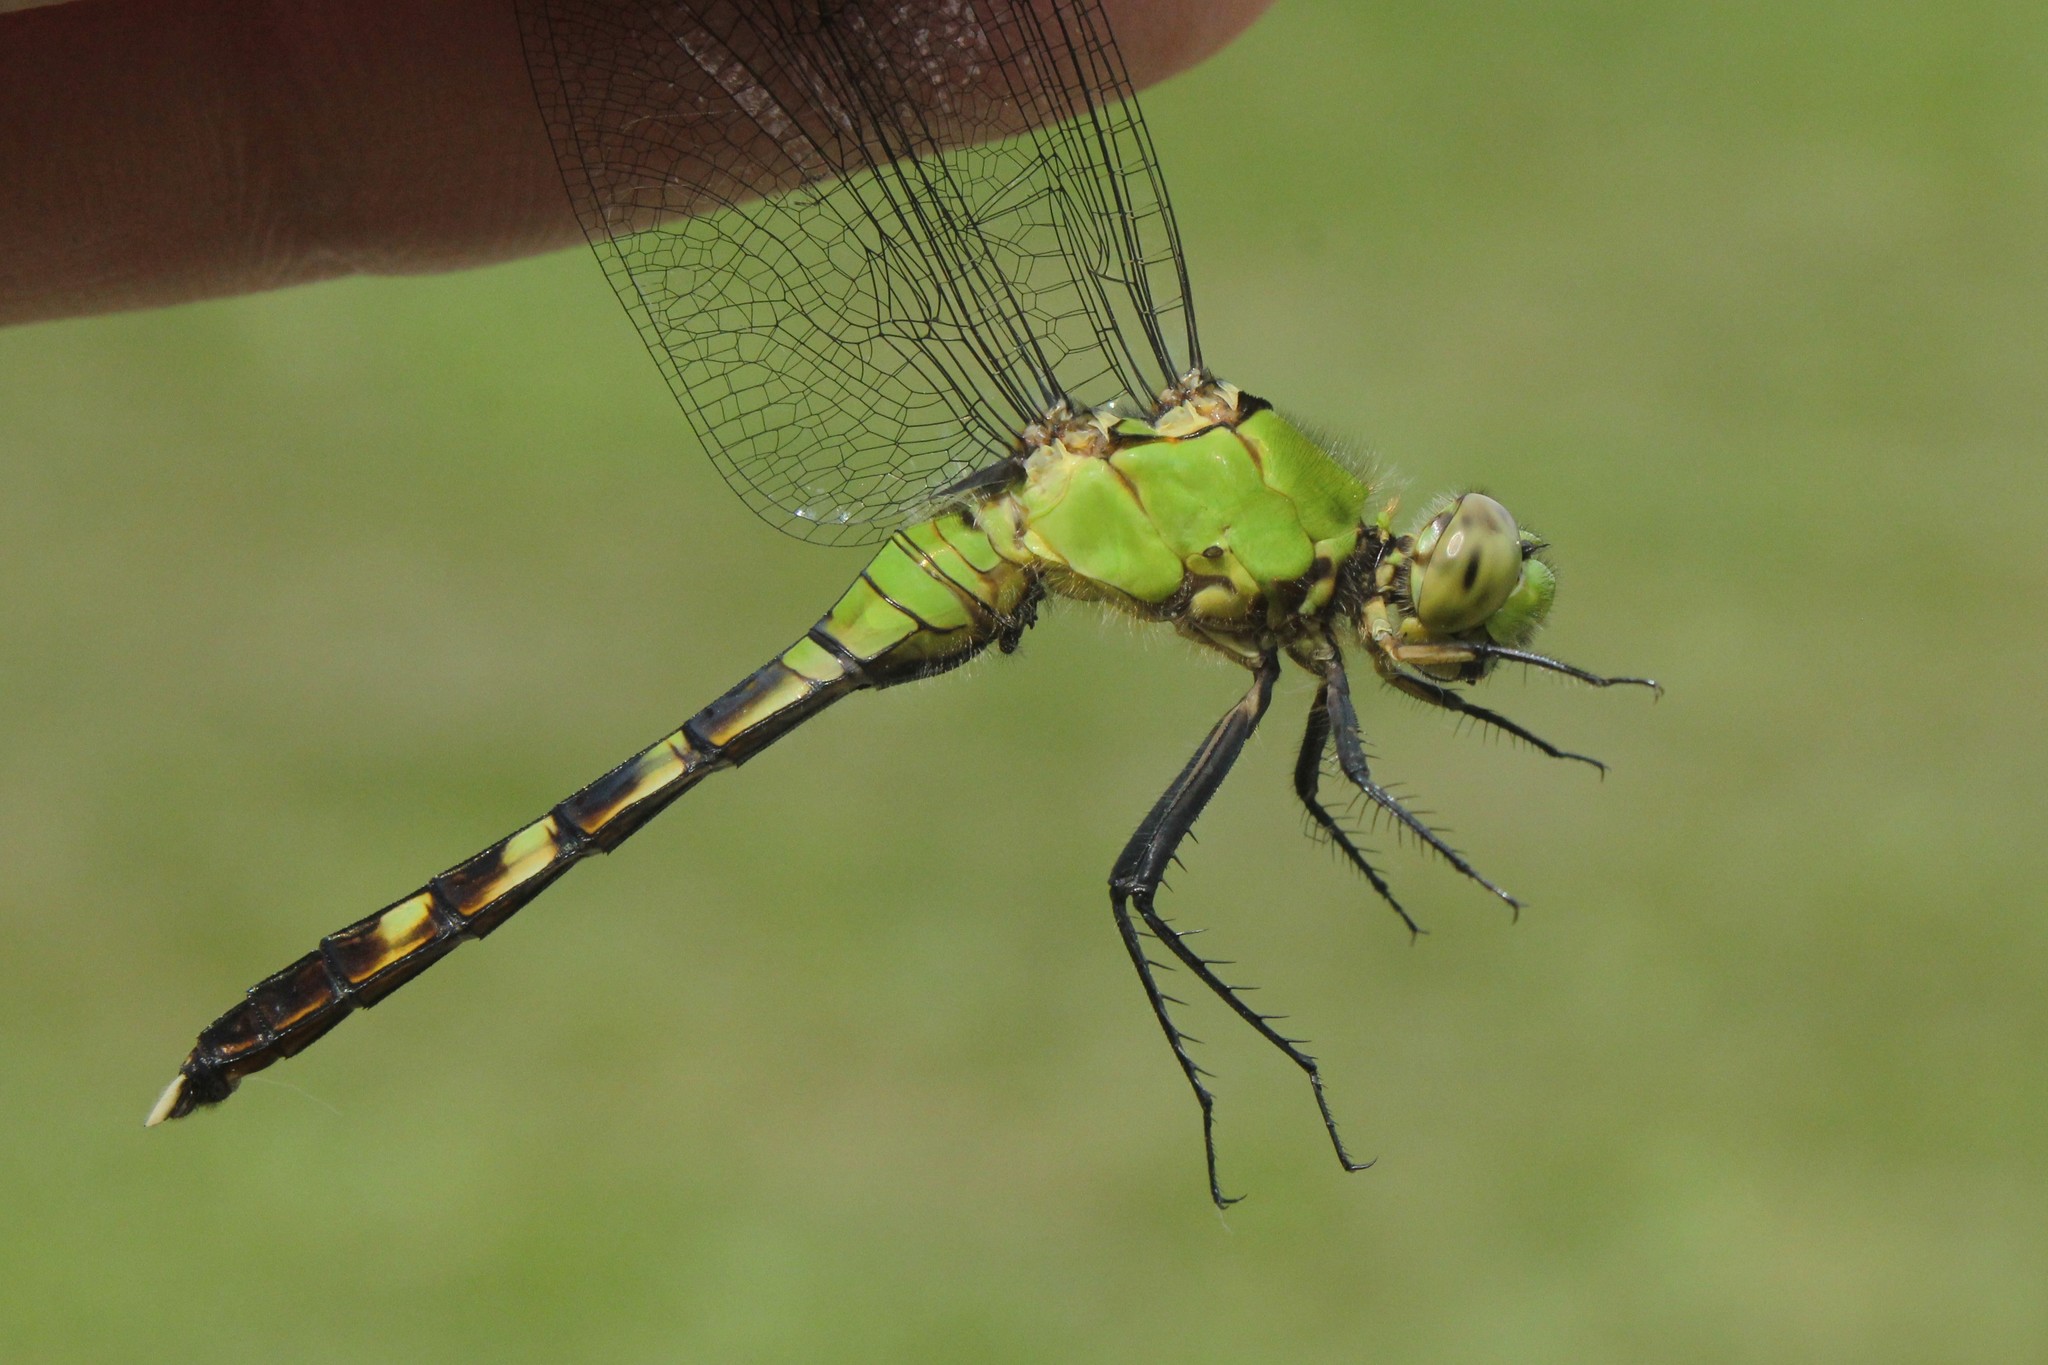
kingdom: Animalia
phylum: Arthropoda
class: Insecta
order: Odonata
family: Libellulidae
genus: Erythemis
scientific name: Erythemis simplicicollis
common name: Eastern pondhawk
